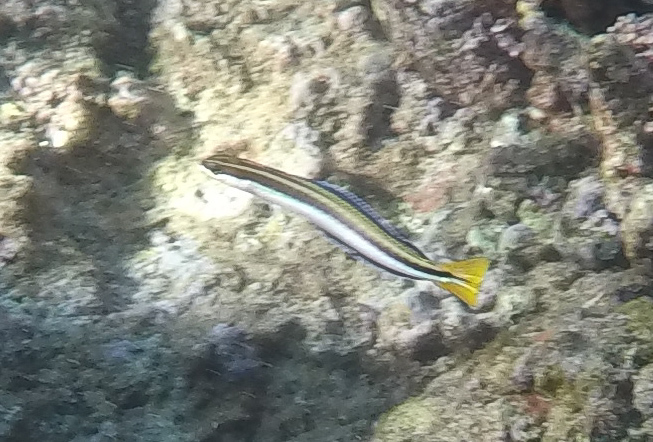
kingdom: Animalia
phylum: Chordata
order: Perciformes
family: Blenniidae
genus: Plagiotremus
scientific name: Plagiotremus goslinei
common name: Biting blenny
